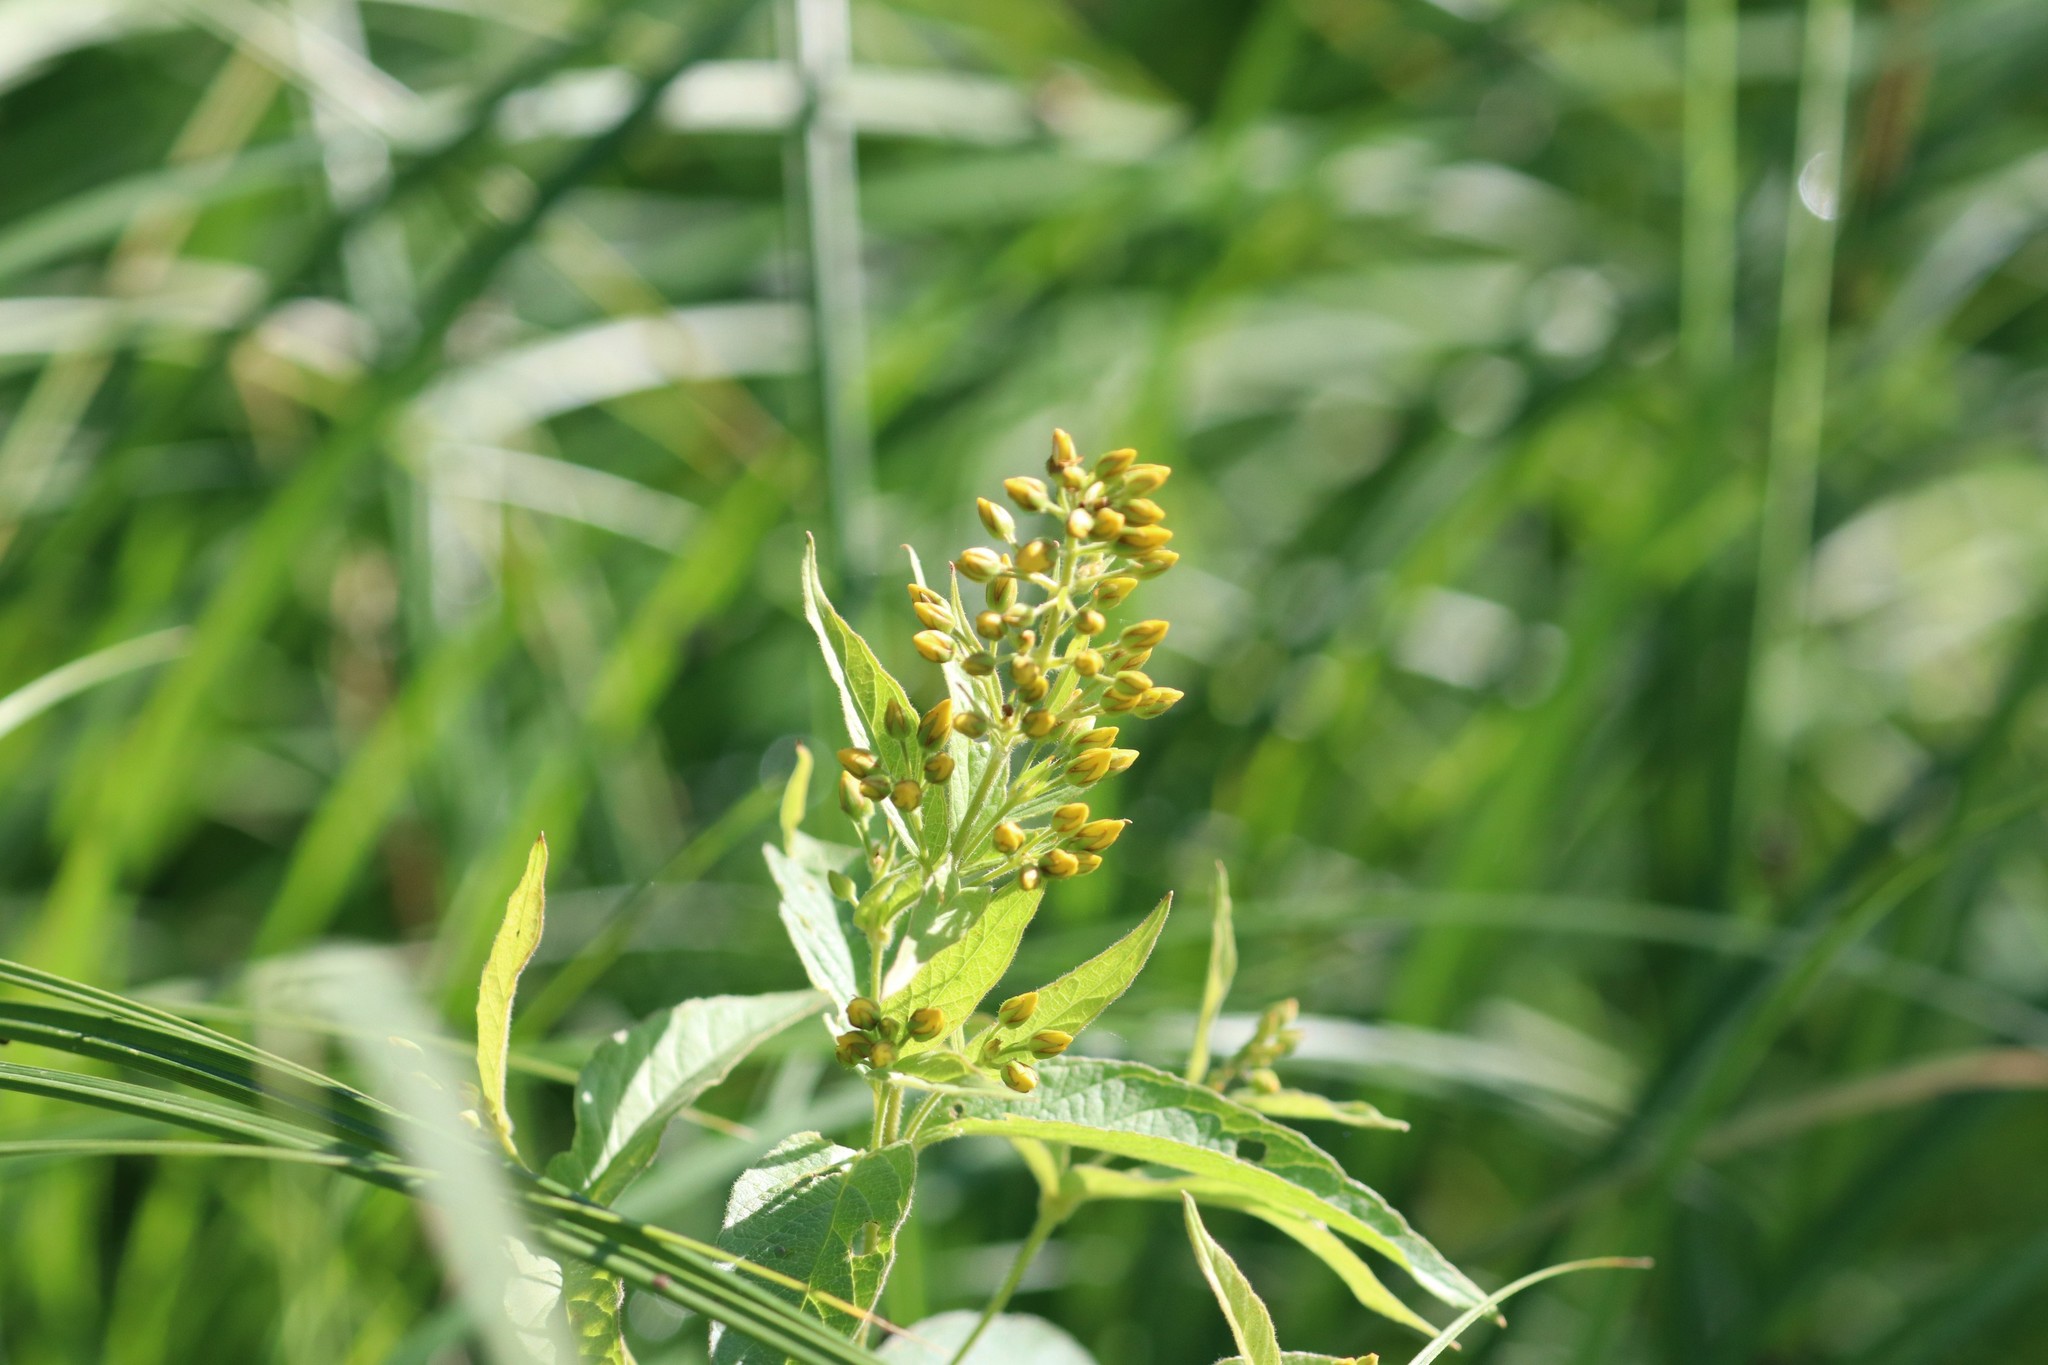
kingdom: Plantae
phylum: Tracheophyta
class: Magnoliopsida
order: Ericales
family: Primulaceae
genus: Lysimachia
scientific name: Lysimachia vulgaris
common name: Yellow loosestrife
